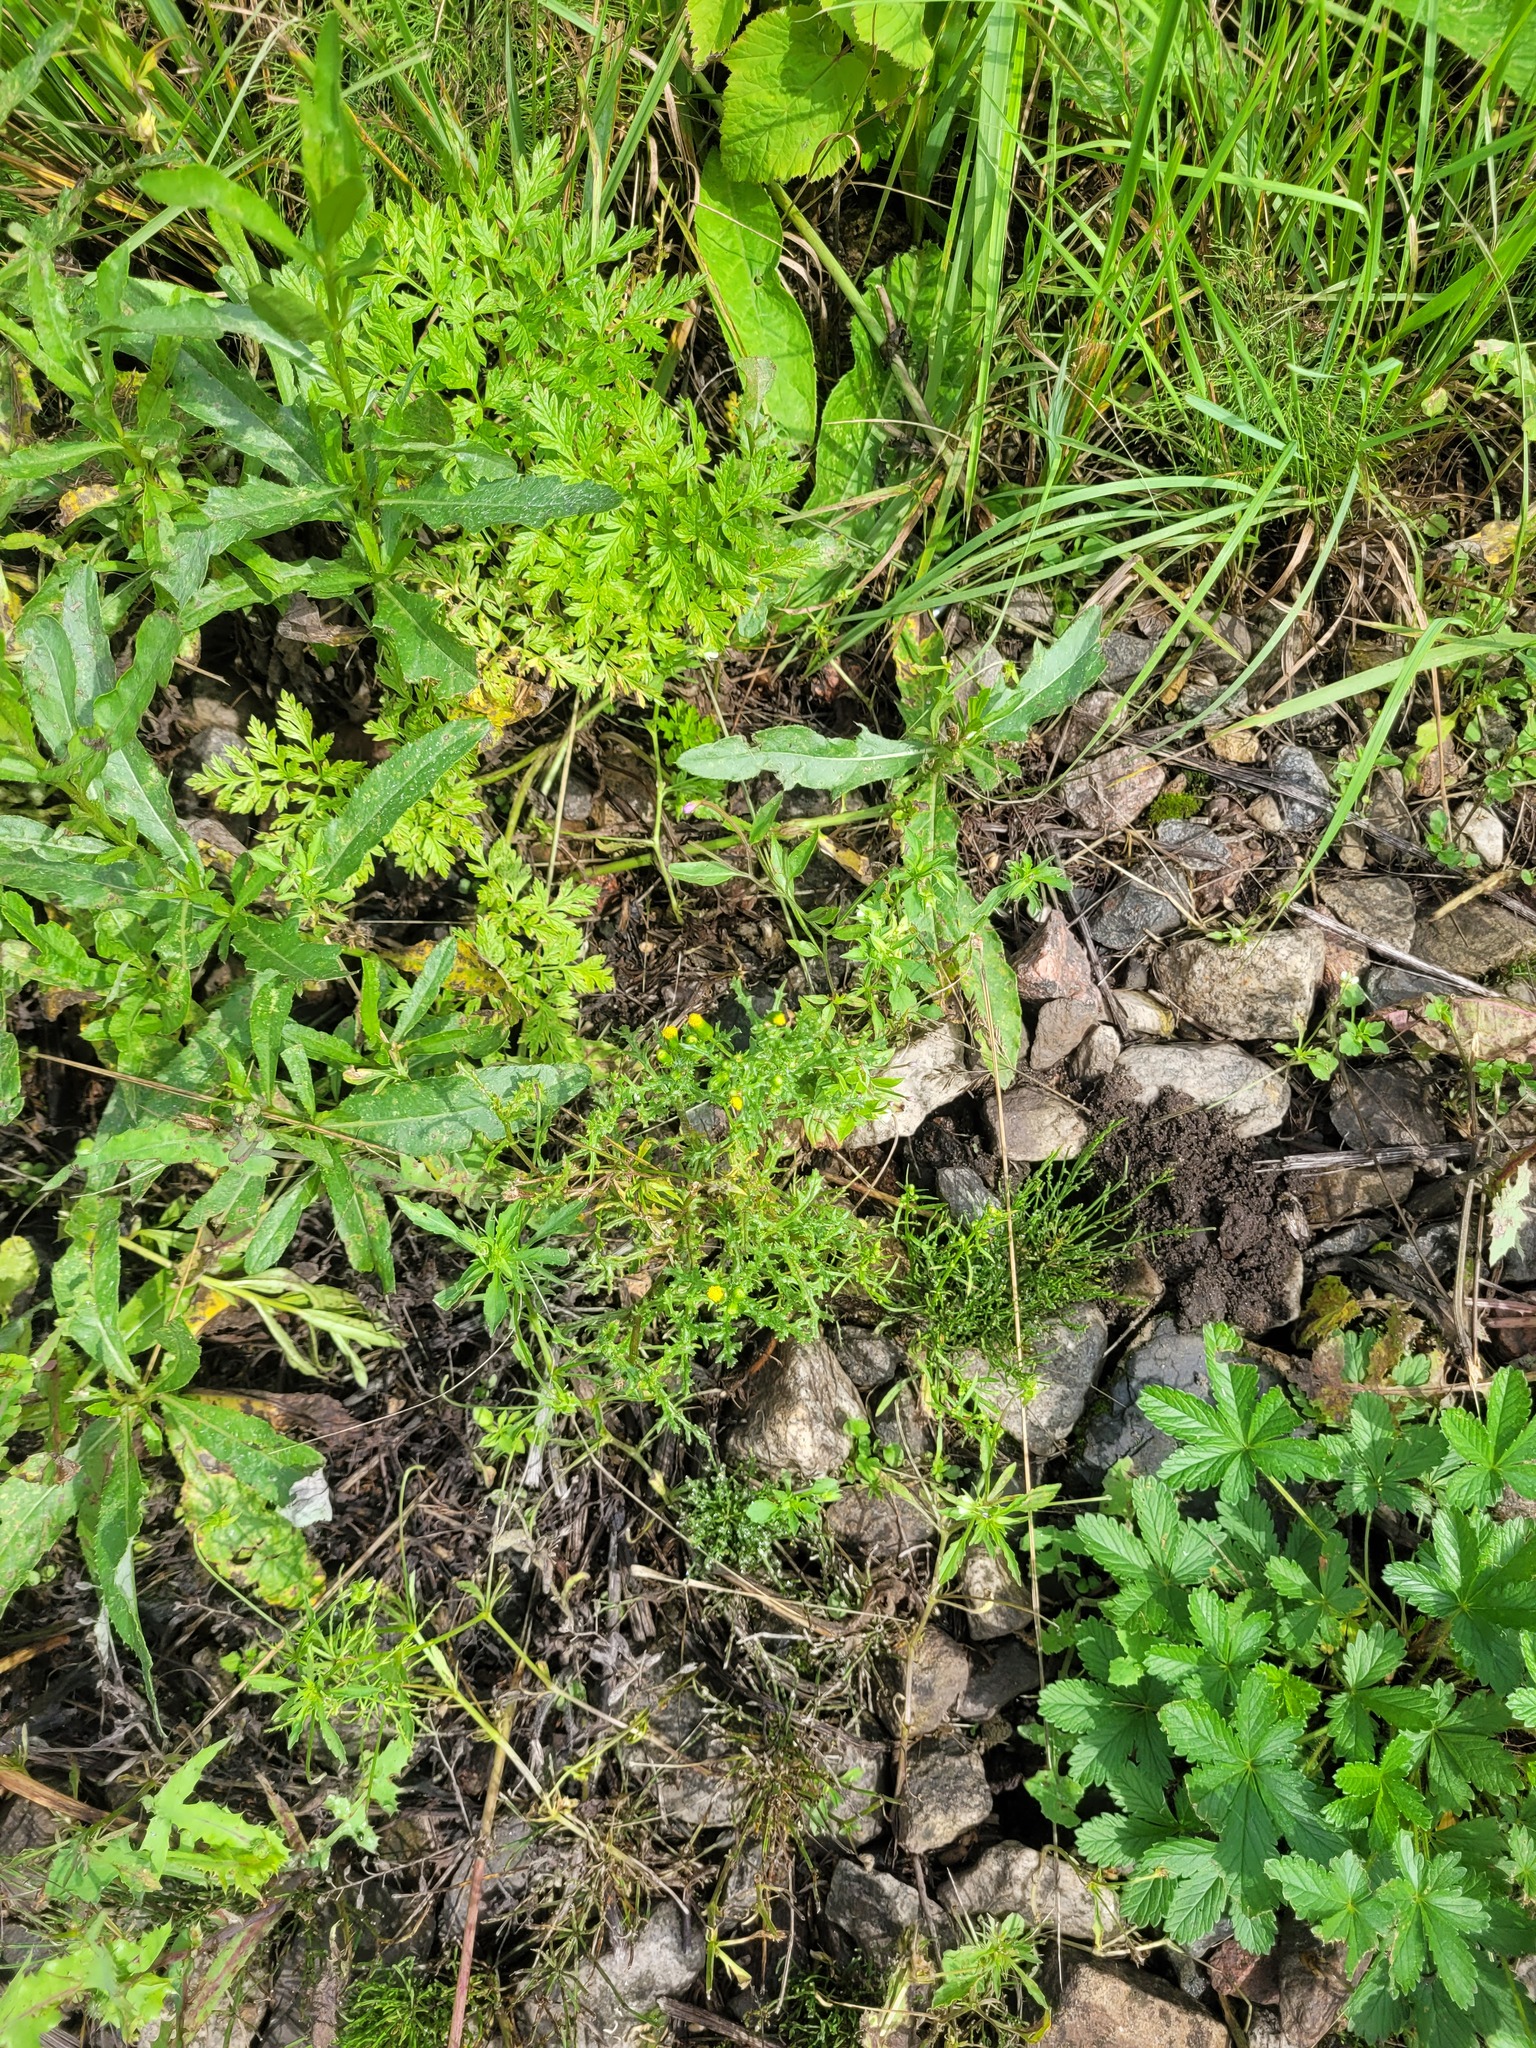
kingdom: Plantae
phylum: Tracheophyta
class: Magnoliopsida
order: Asterales
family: Asteraceae
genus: Senecio
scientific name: Senecio vulgaris
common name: Old-man-in-the-spring
